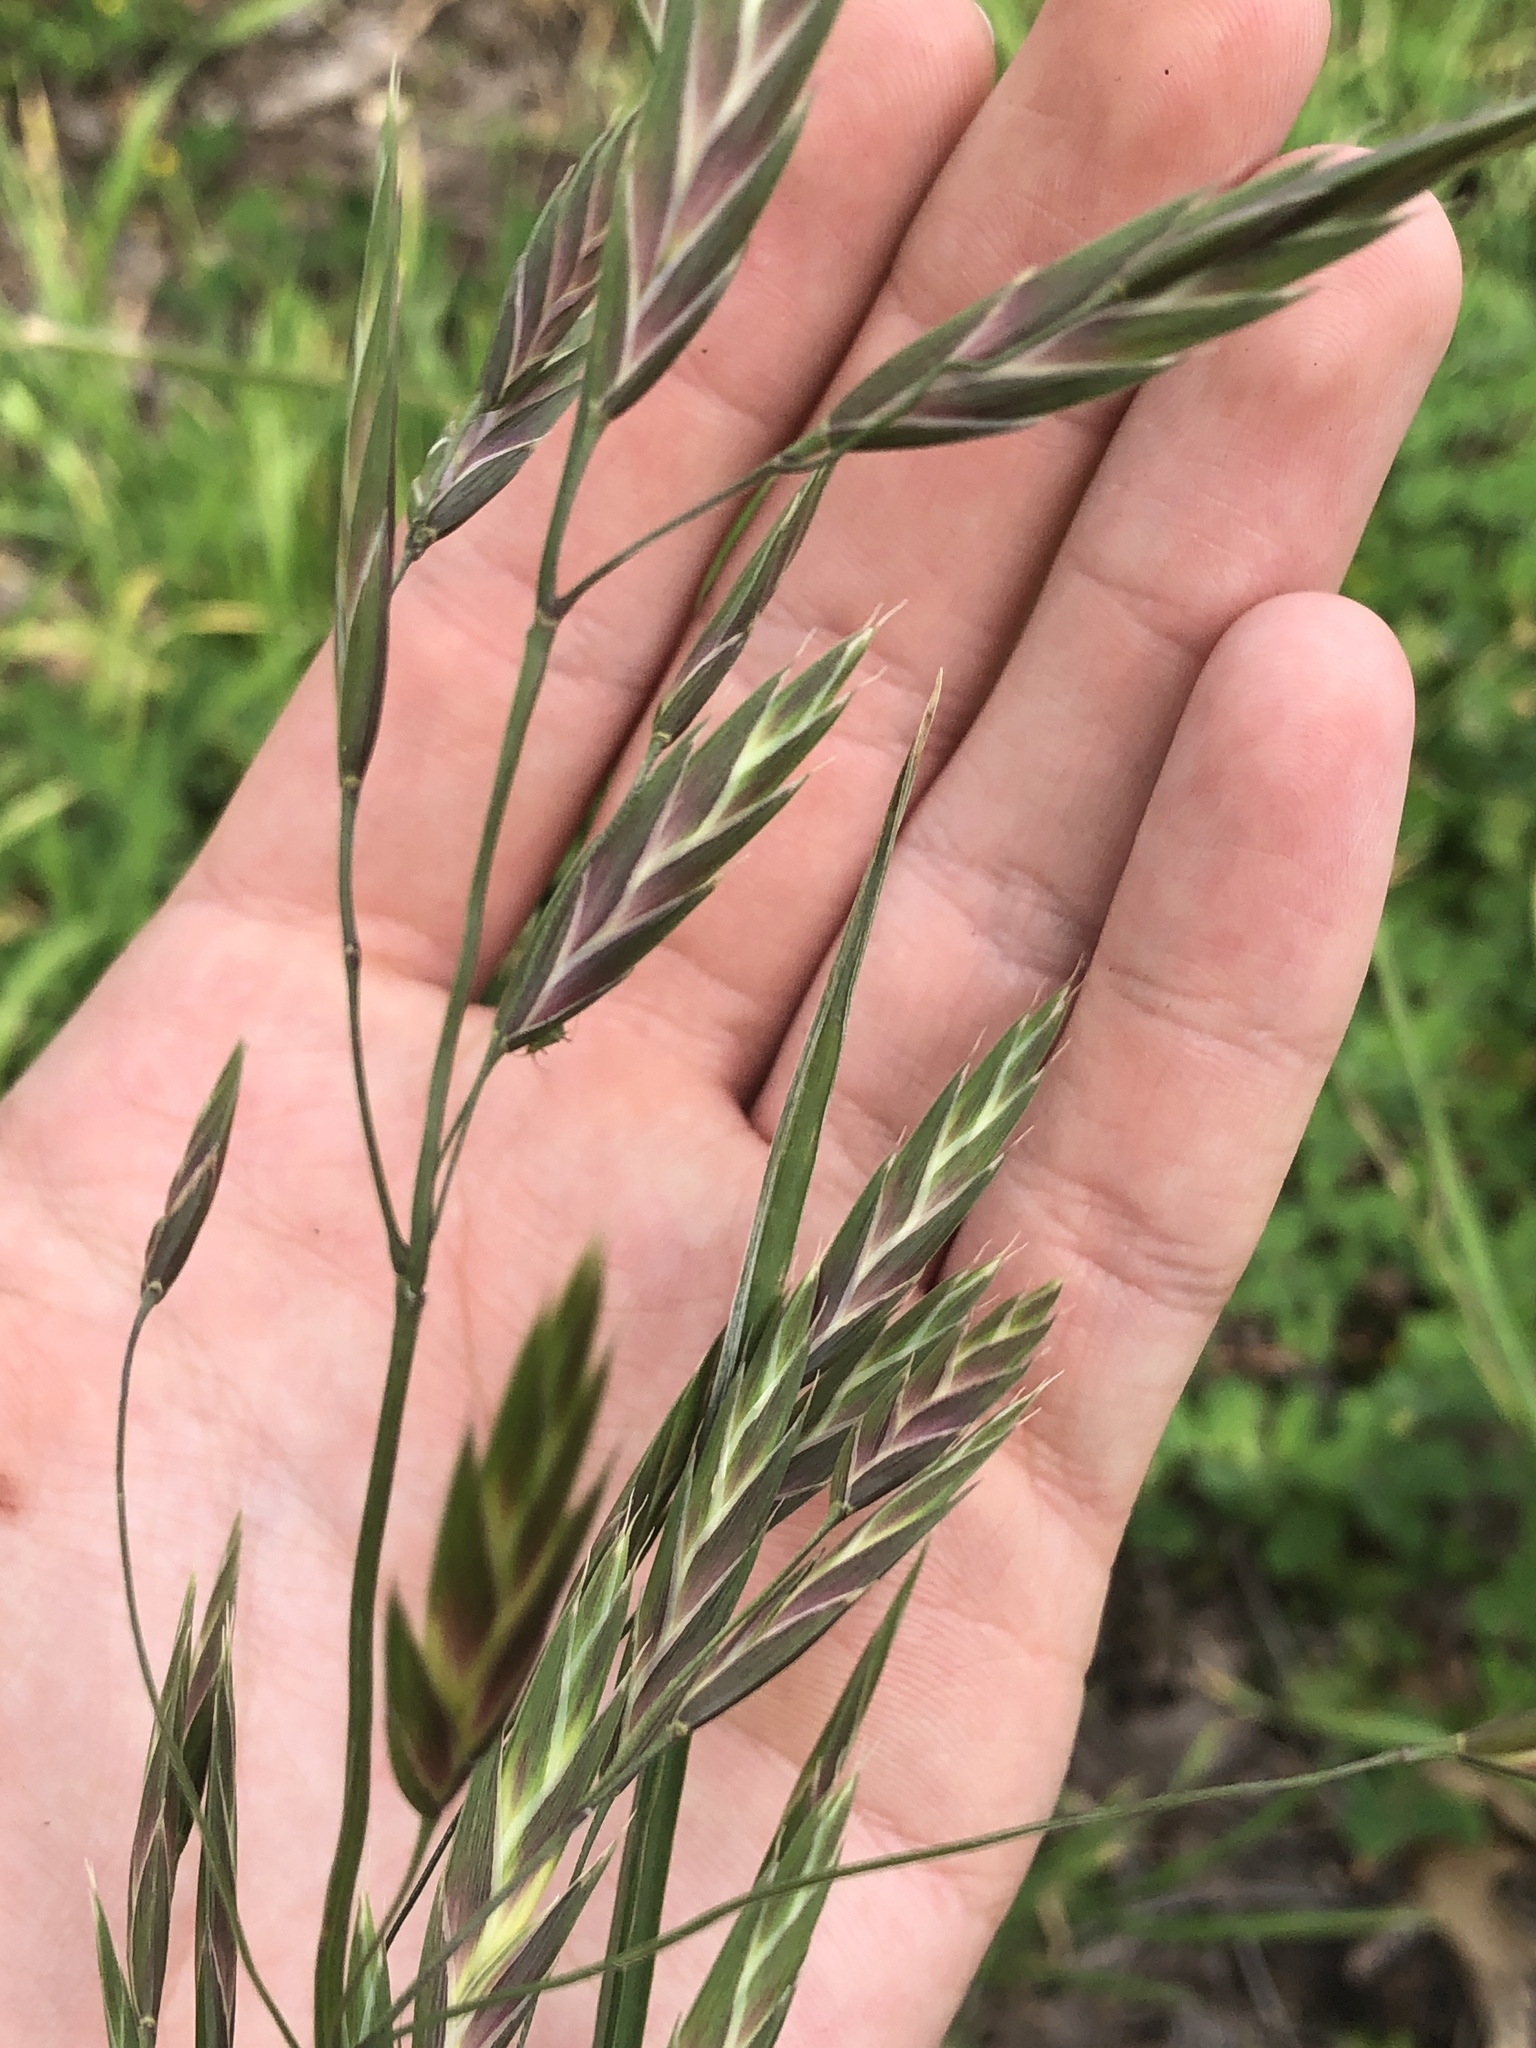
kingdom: Plantae
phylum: Tracheophyta
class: Liliopsida
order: Poales
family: Poaceae
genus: Bromus
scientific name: Bromus catharticus
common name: Rescuegrass
